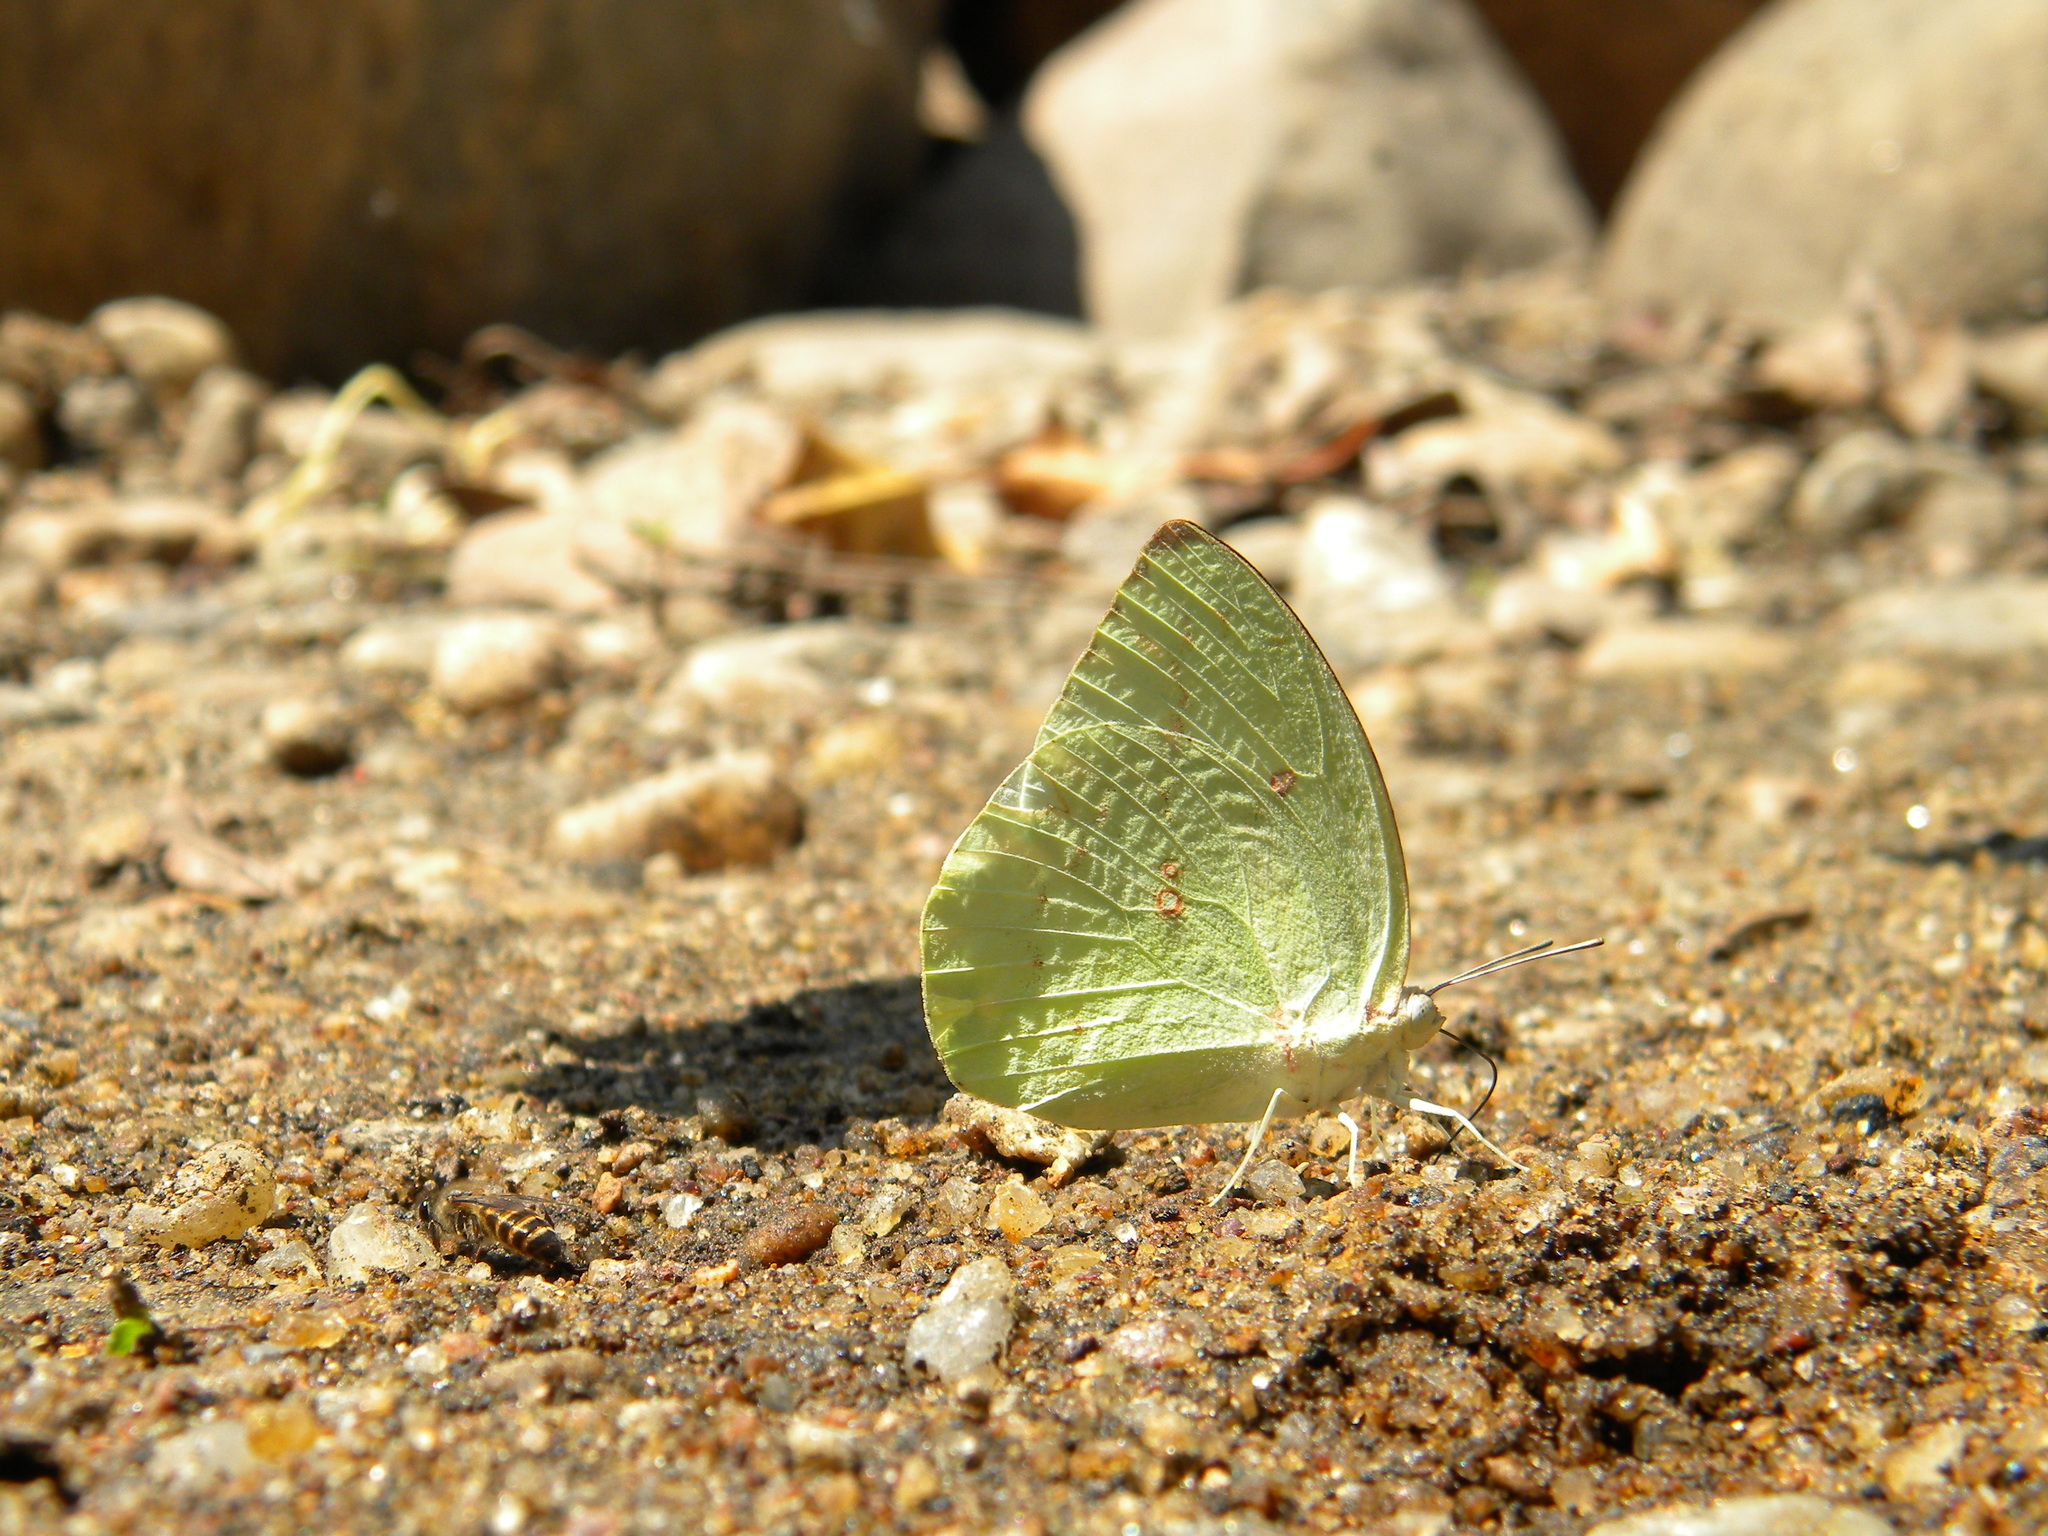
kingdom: Animalia
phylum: Arthropoda
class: Insecta
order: Lepidoptera
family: Pieridae
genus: Catopsilia
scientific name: Catopsilia pomona
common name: Common emigrant
